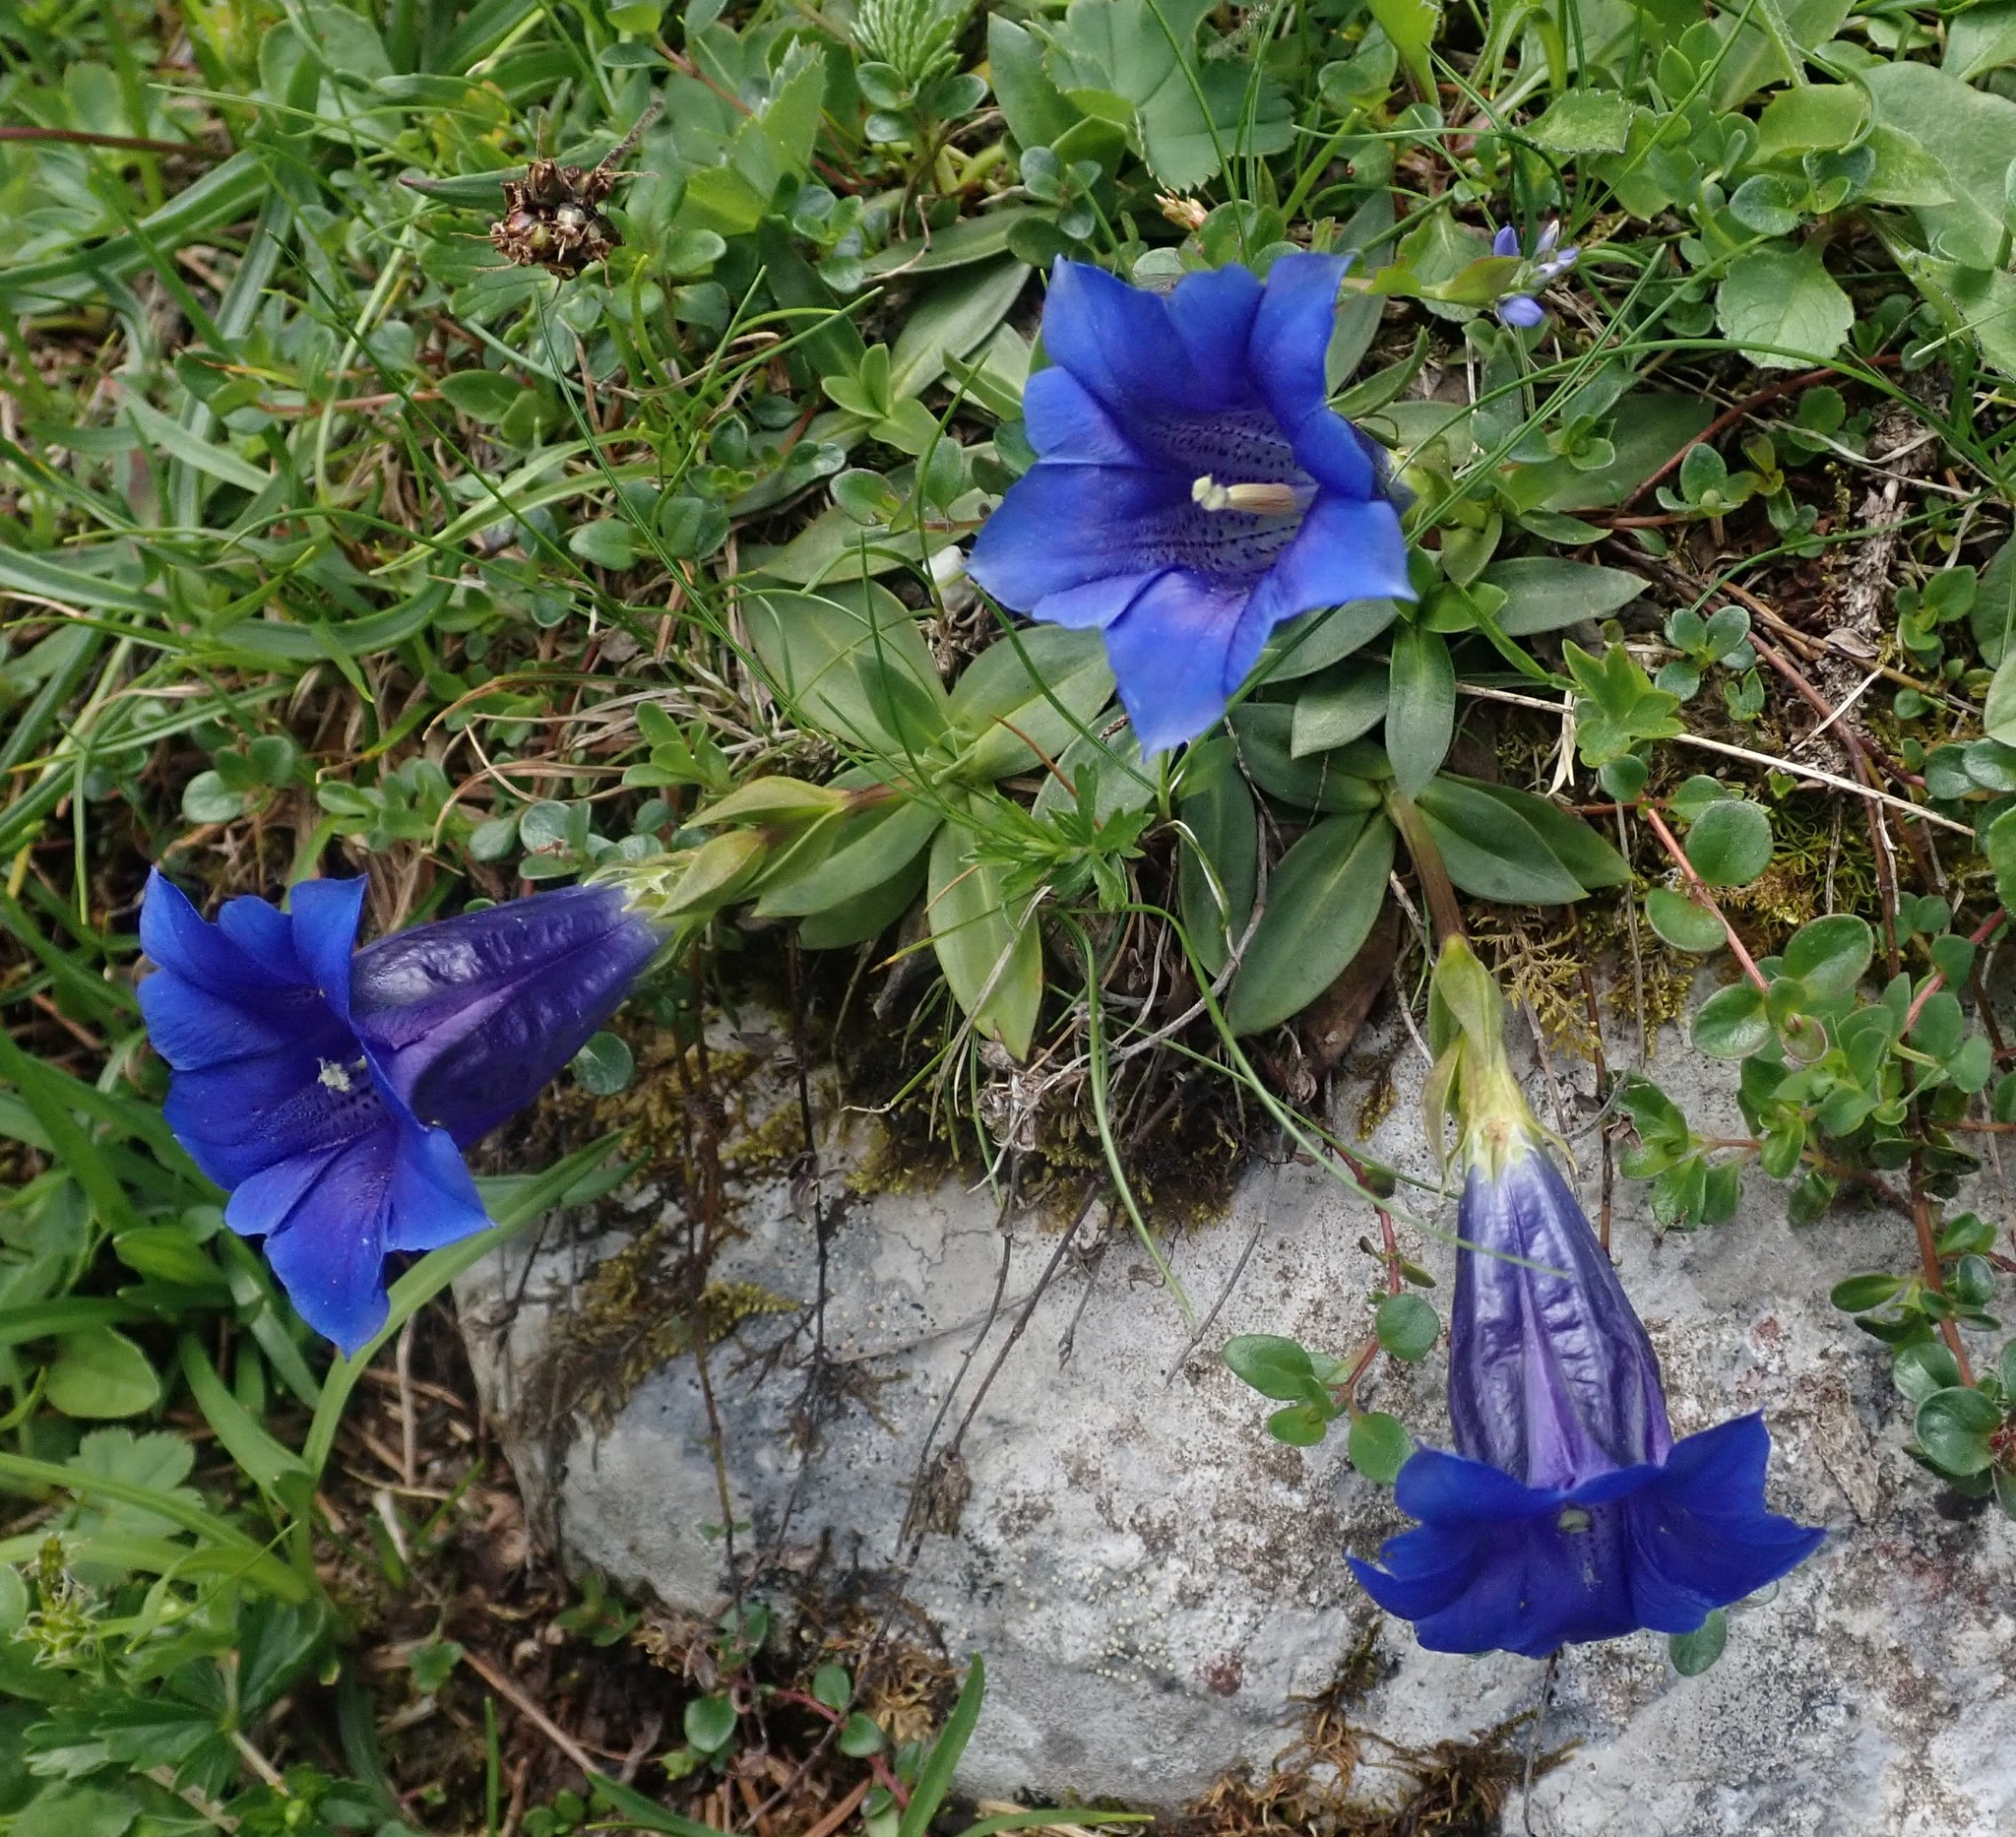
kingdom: Plantae
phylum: Tracheophyta
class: Magnoliopsida
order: Gentianales
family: Gentianaceae
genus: Gentiana
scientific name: Gentiana clusii
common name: Trumpet gentian
